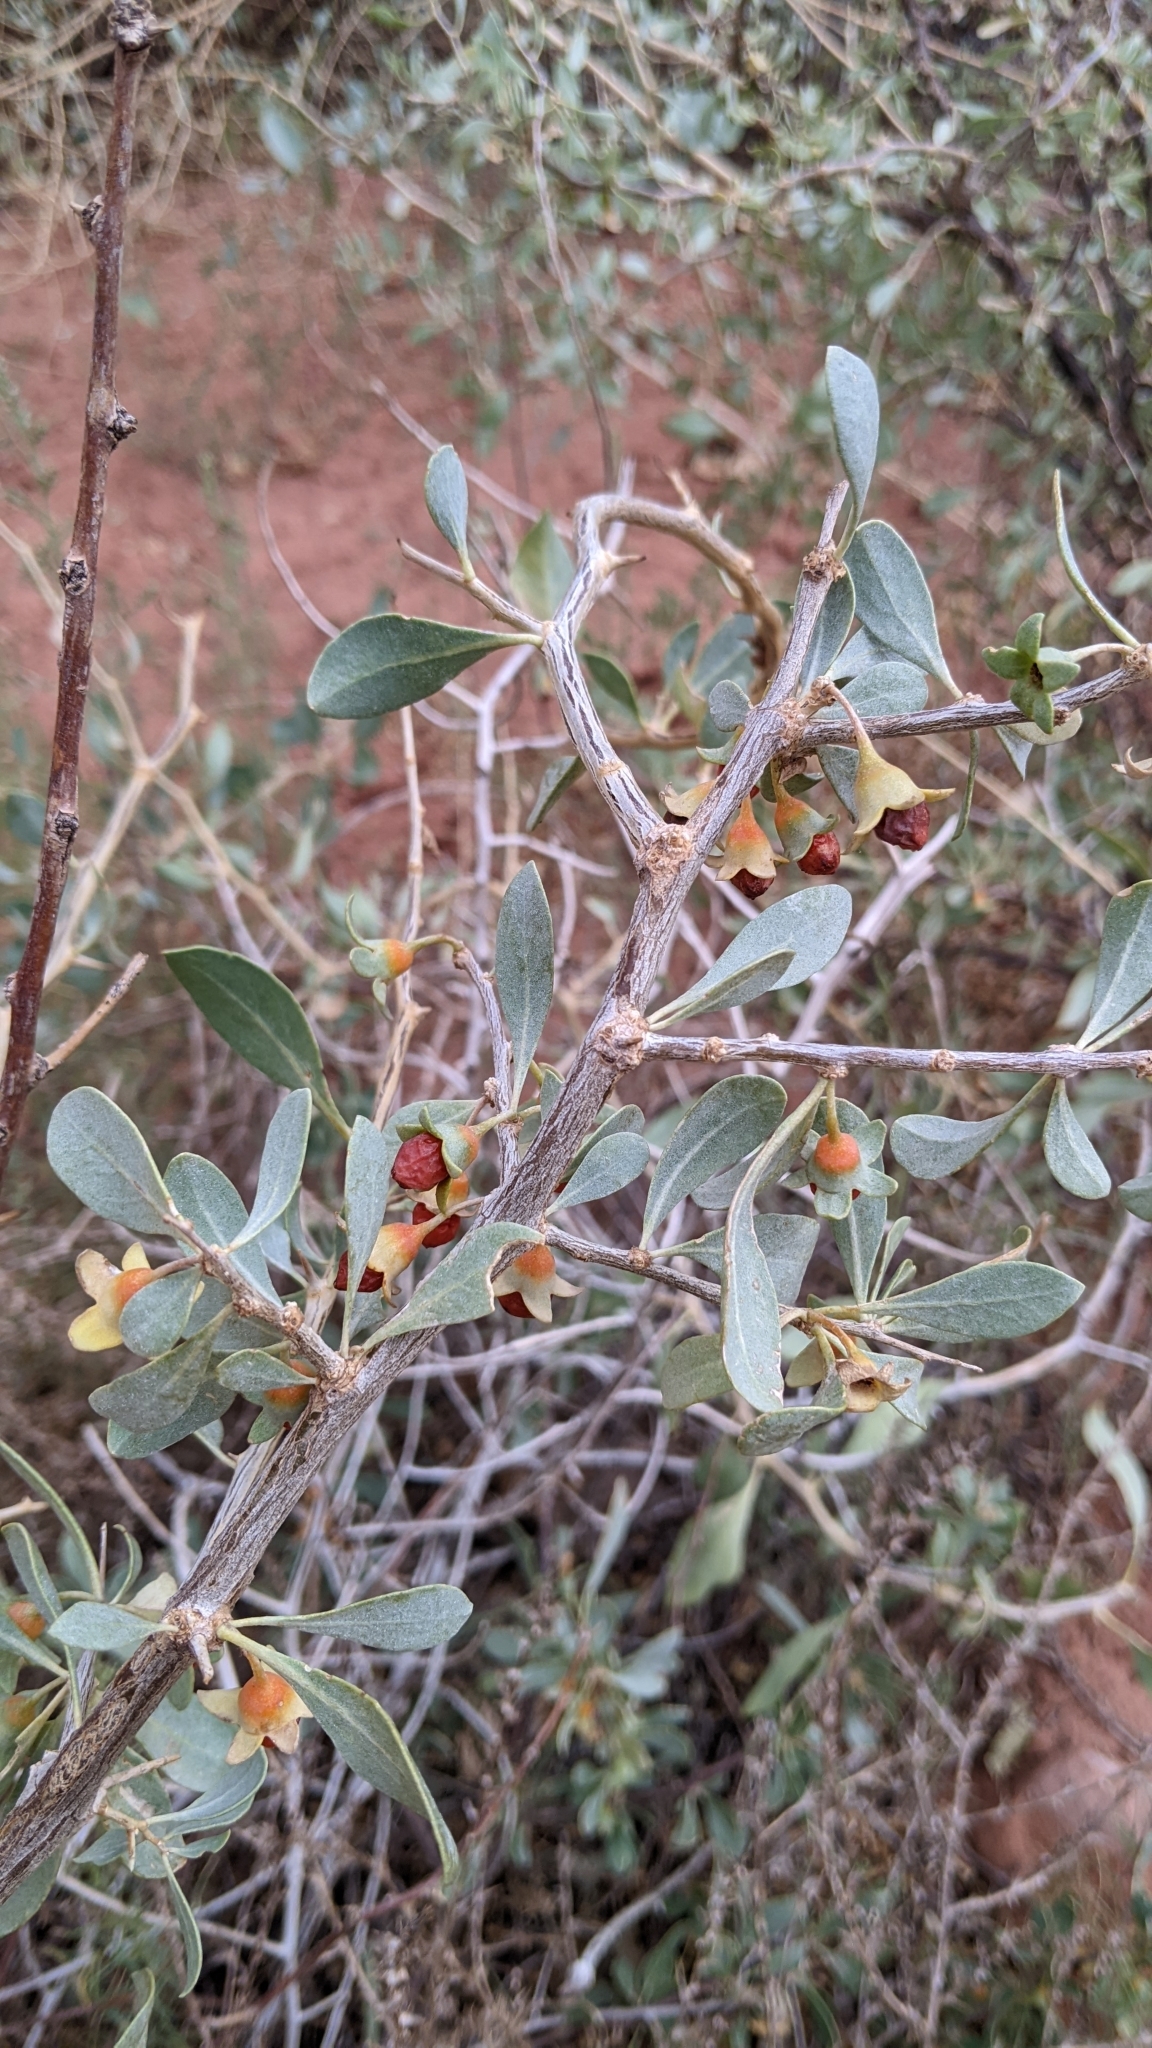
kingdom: Plantae
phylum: Tracheophyta
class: Magnoliopsida
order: Solanales
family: Solanaceae
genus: Lycium
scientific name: Lycium pallidum
